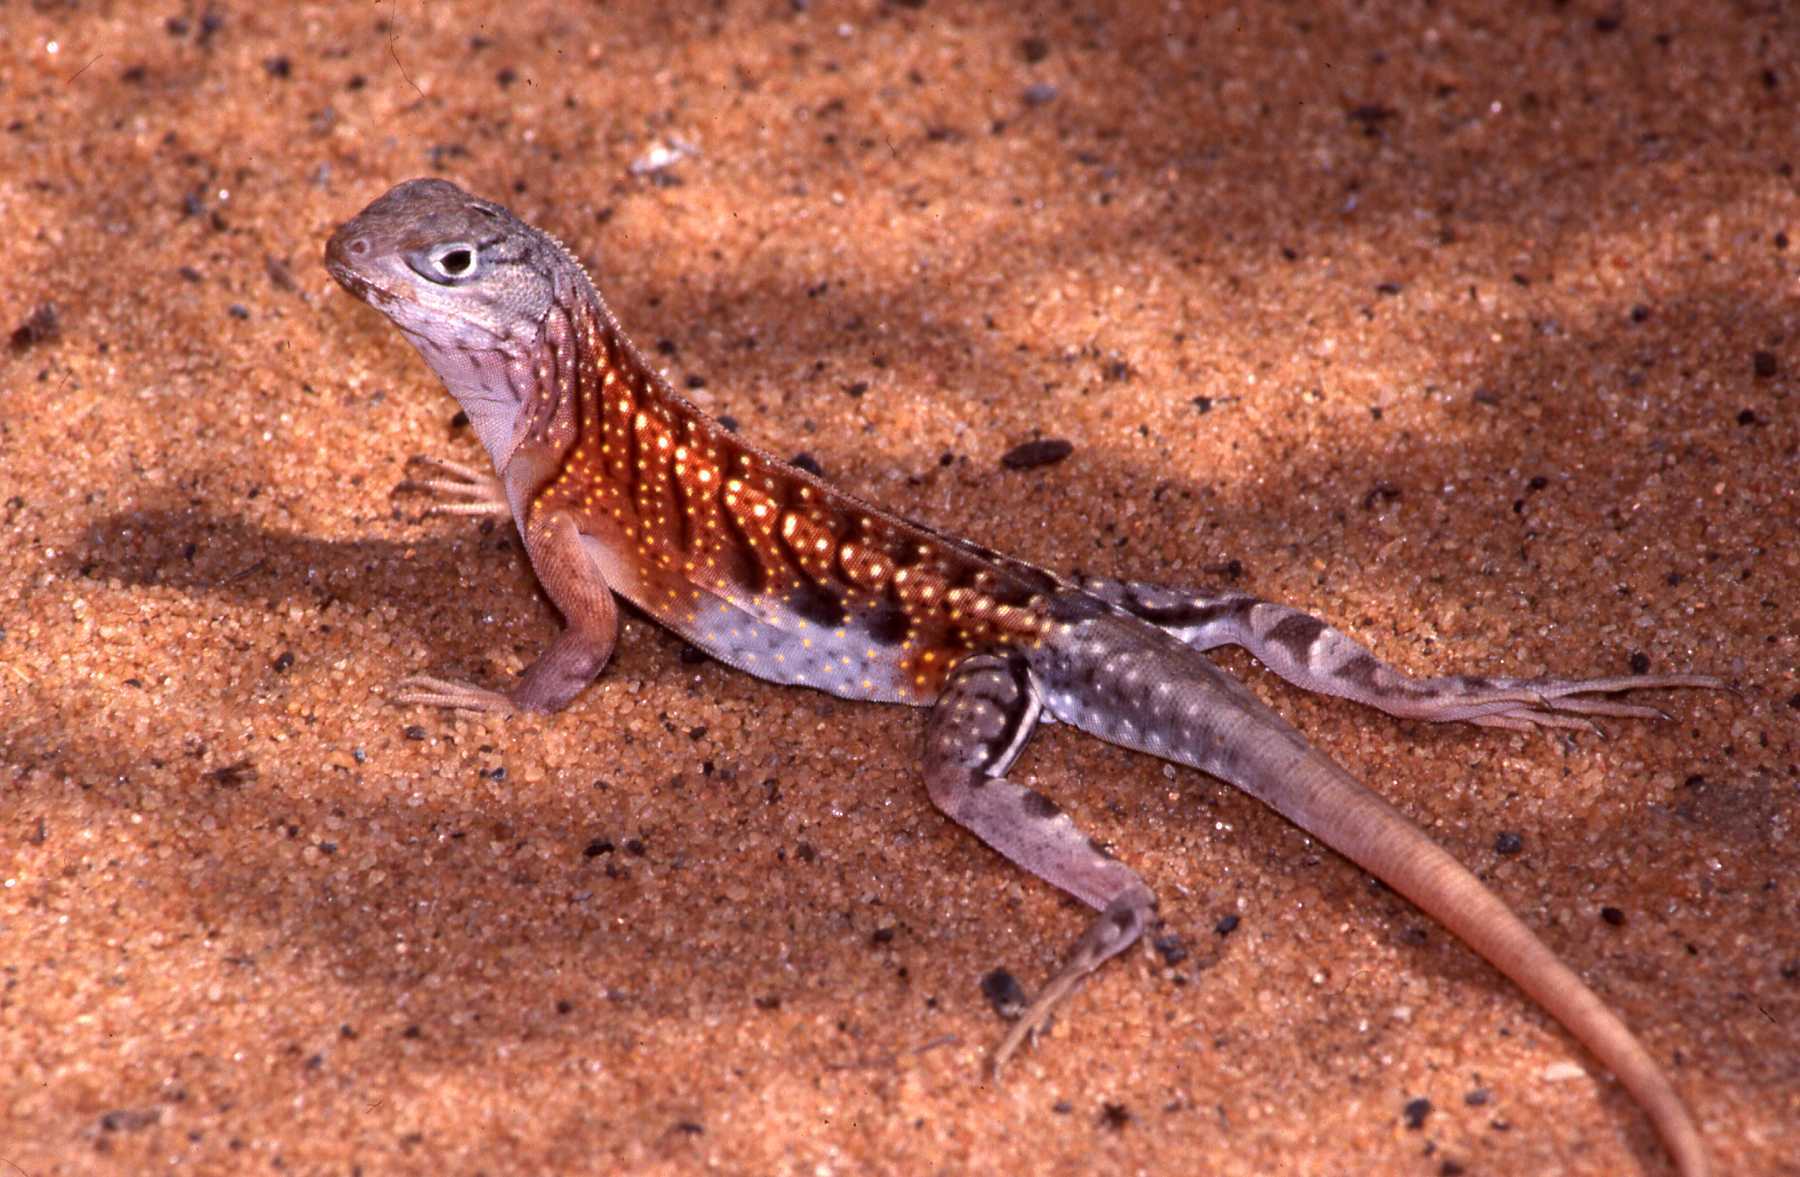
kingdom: Animalia
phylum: Chordata
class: Squamata
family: Opluridae
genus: Chalarodon
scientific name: Chalarodon madagascariensis
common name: Madagascar iguana
